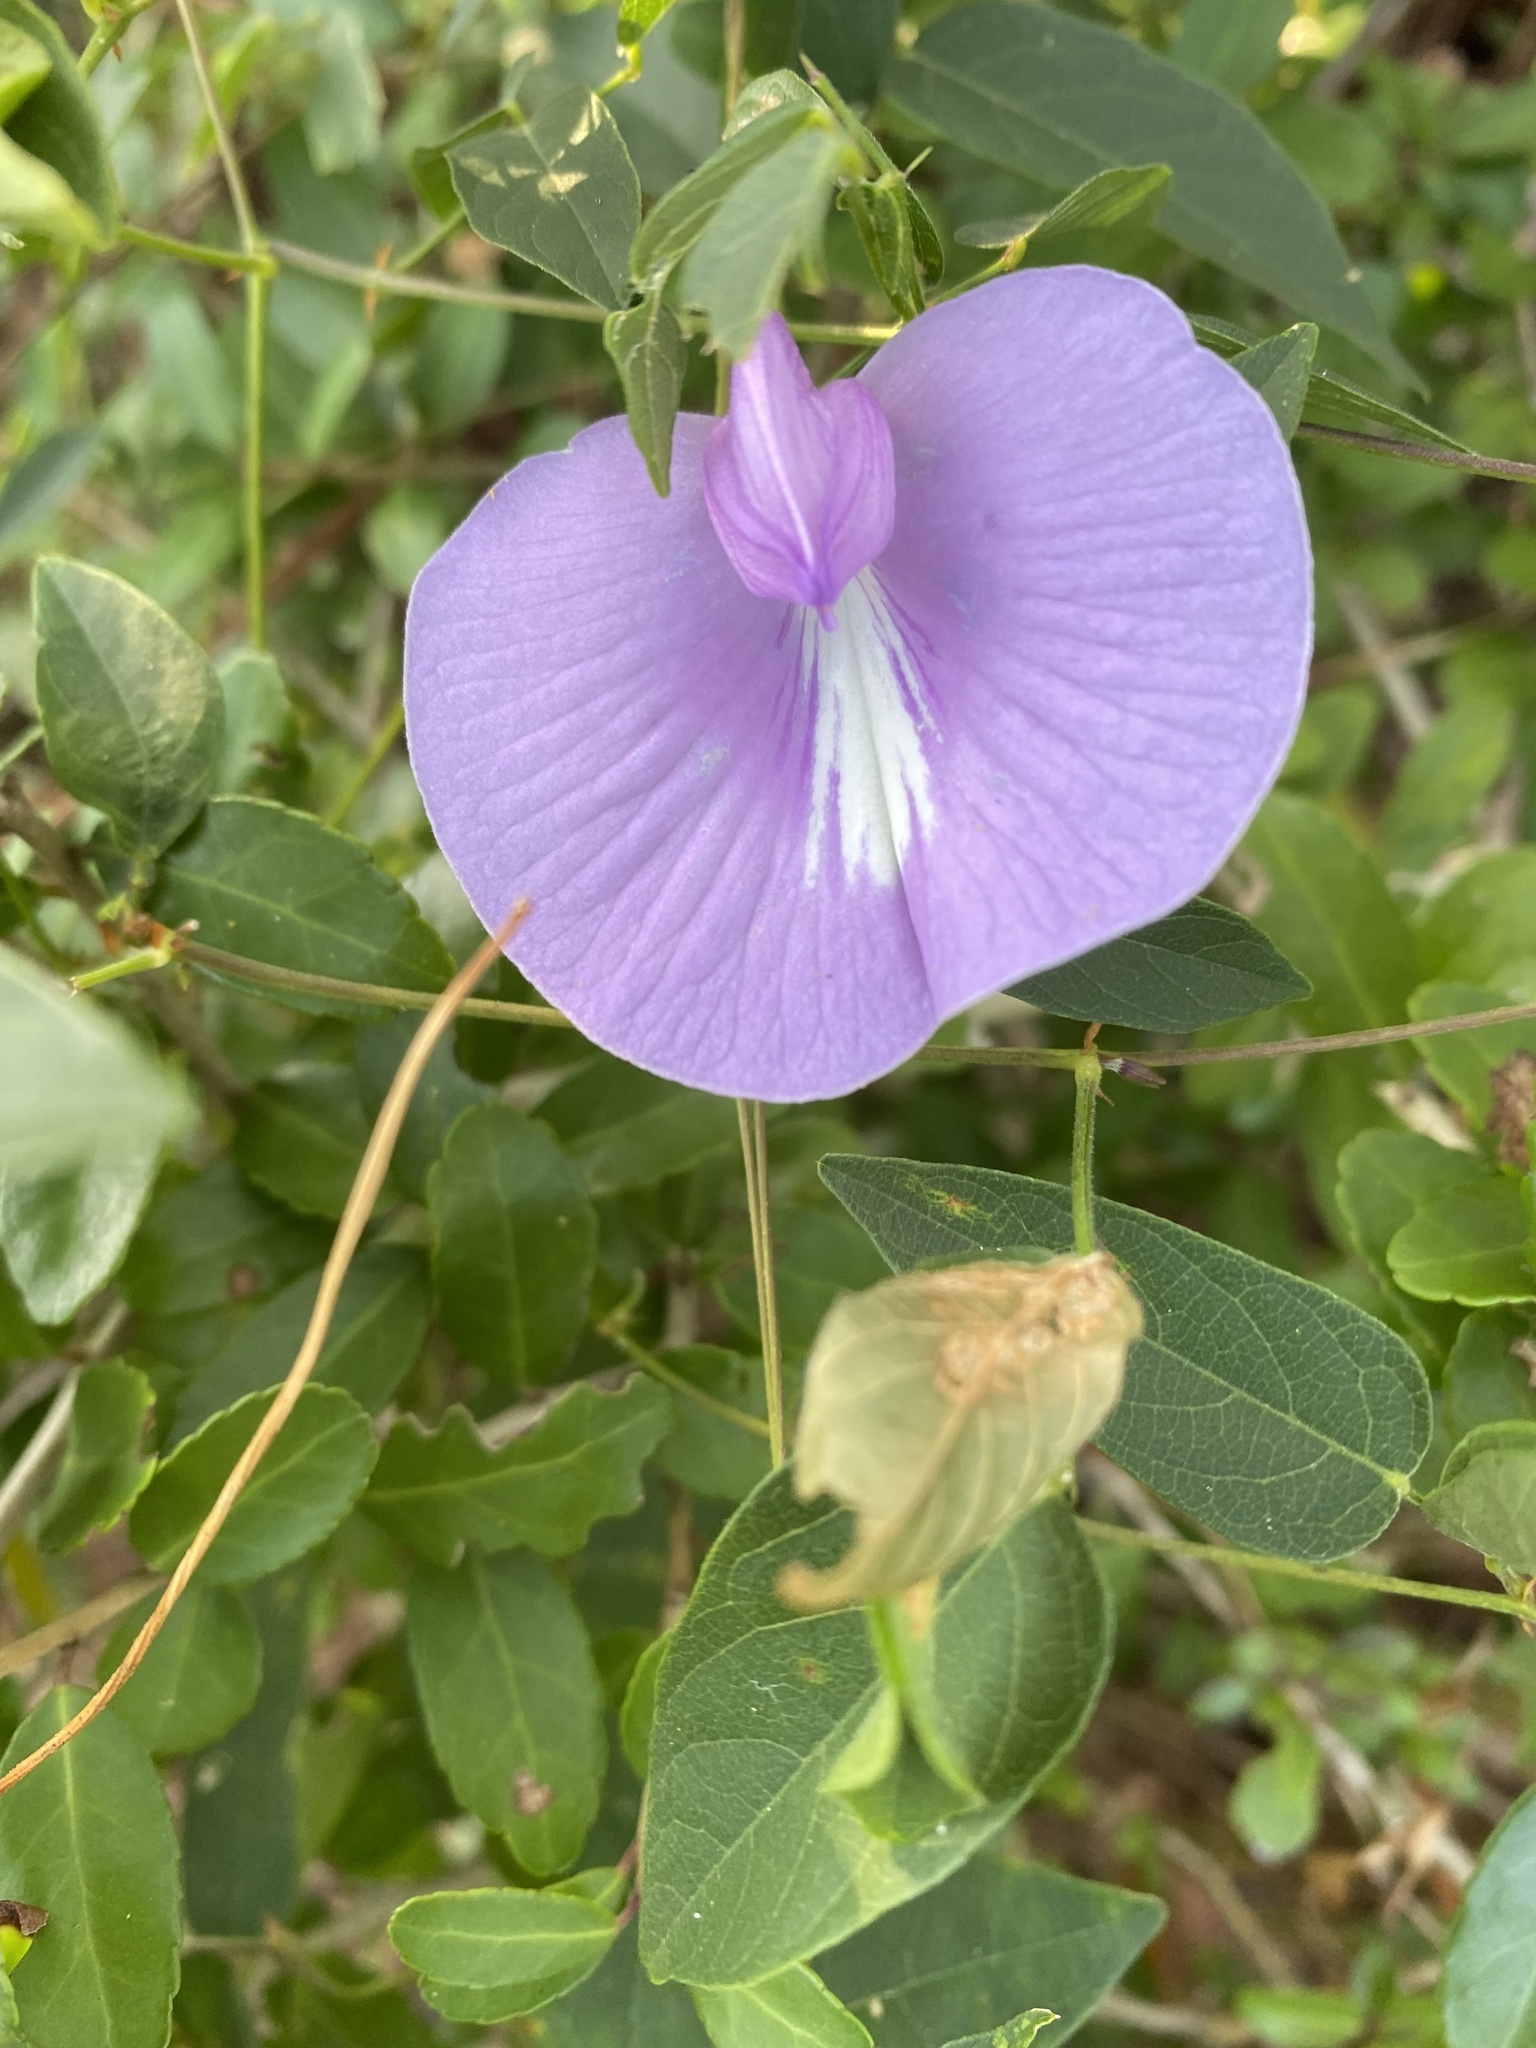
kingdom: Plantae
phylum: Tracheophyta
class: Magnoliopsida
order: Fabales
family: Fabaceae
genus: Centrosema
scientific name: Centrosema virginianum
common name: Butterfly-pea
